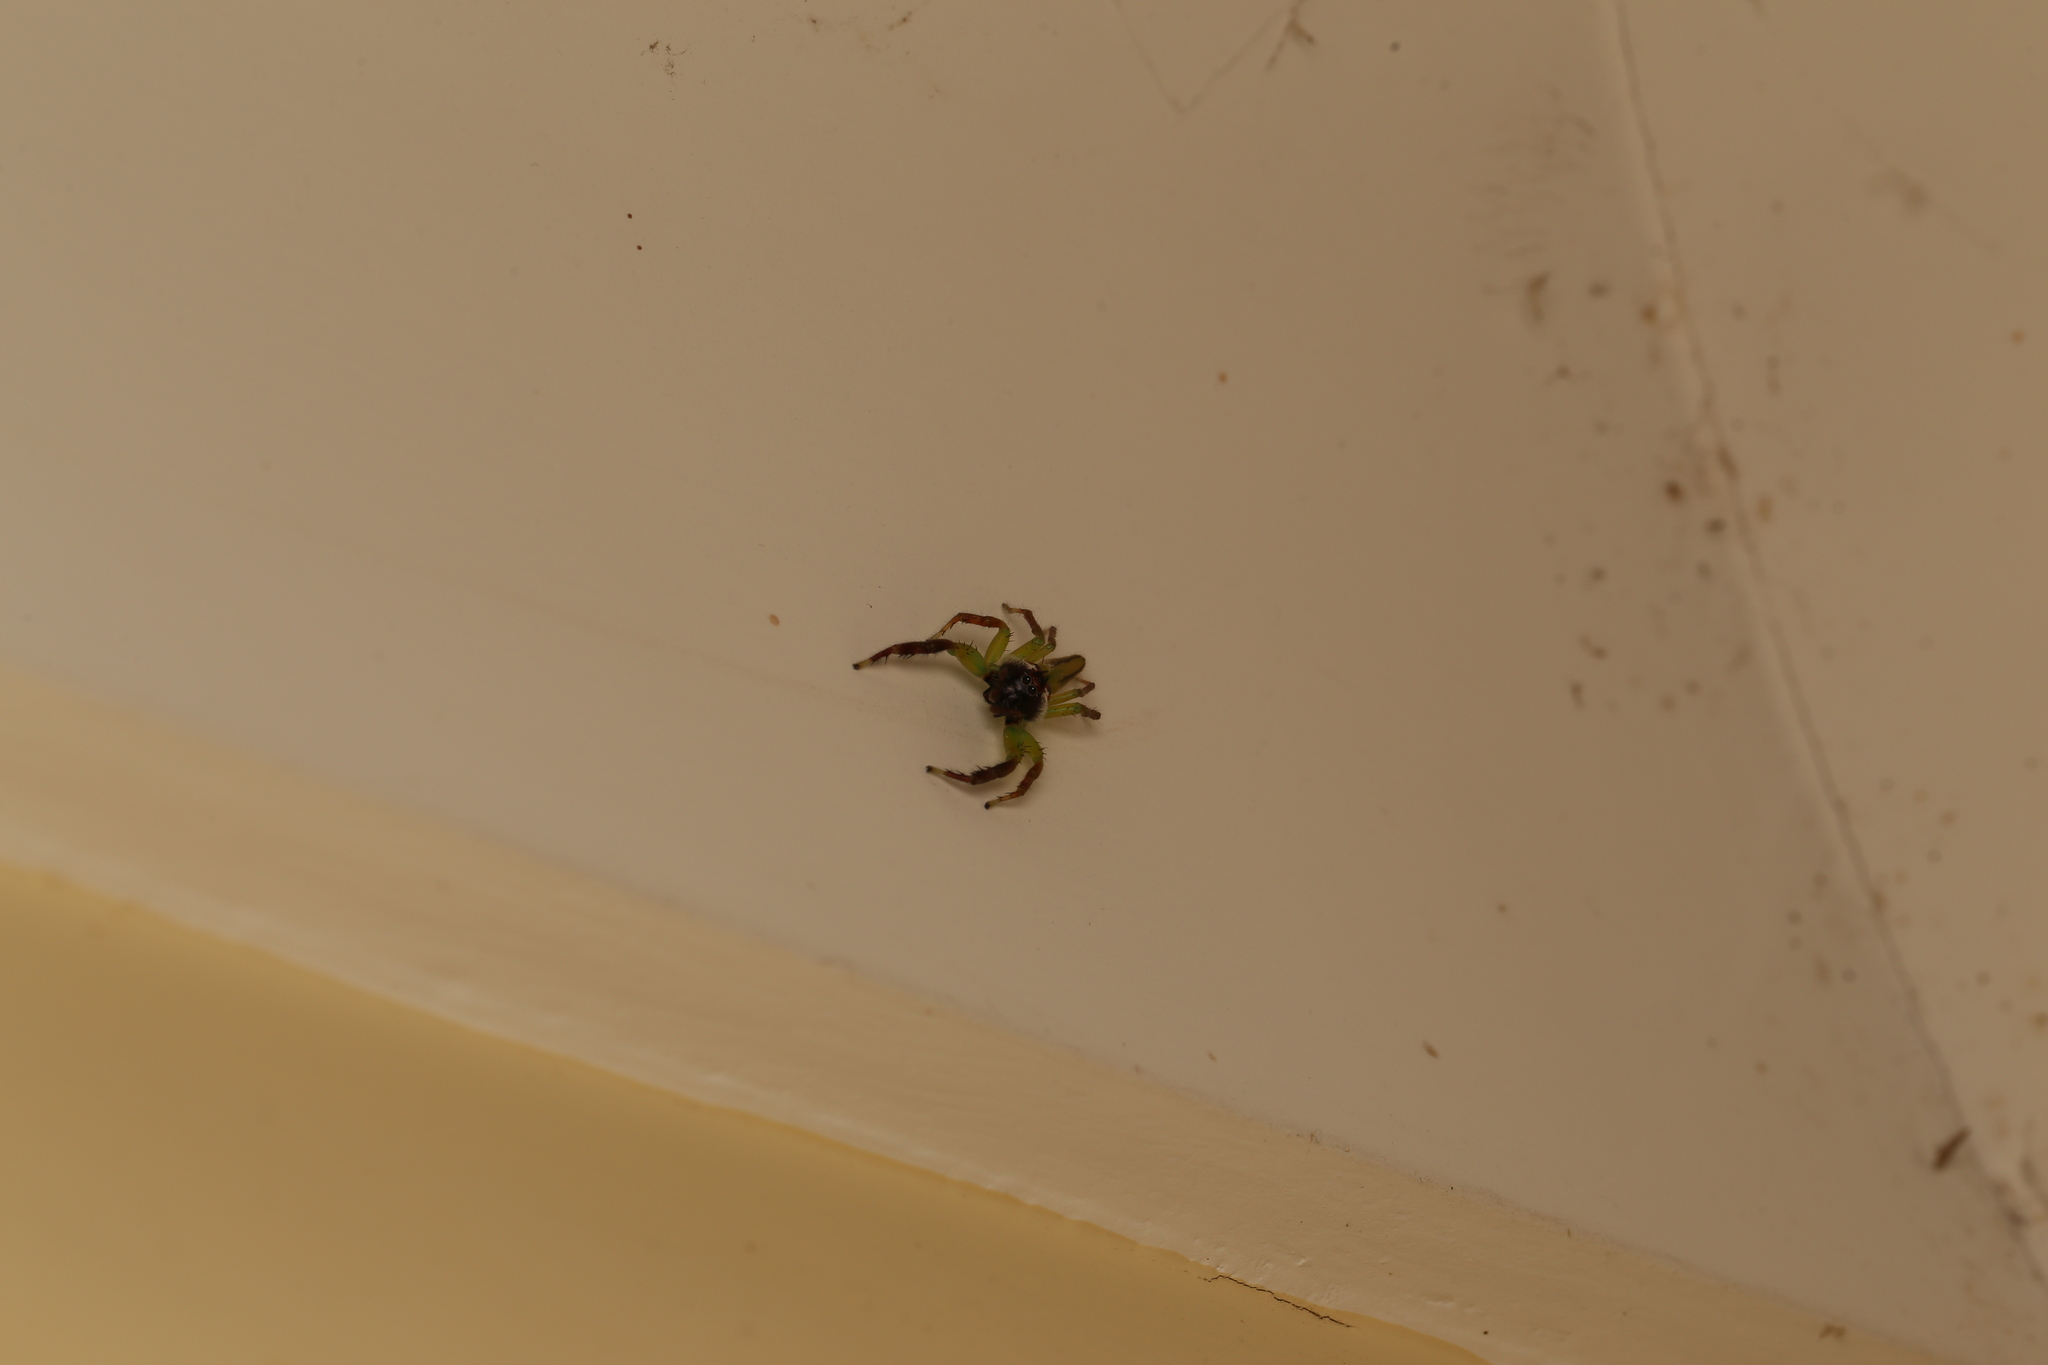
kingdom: Animalia
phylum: Arthropoda
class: Arachnida
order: Araneae
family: Salticidae
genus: Mopsus
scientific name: Mopsus mormon
